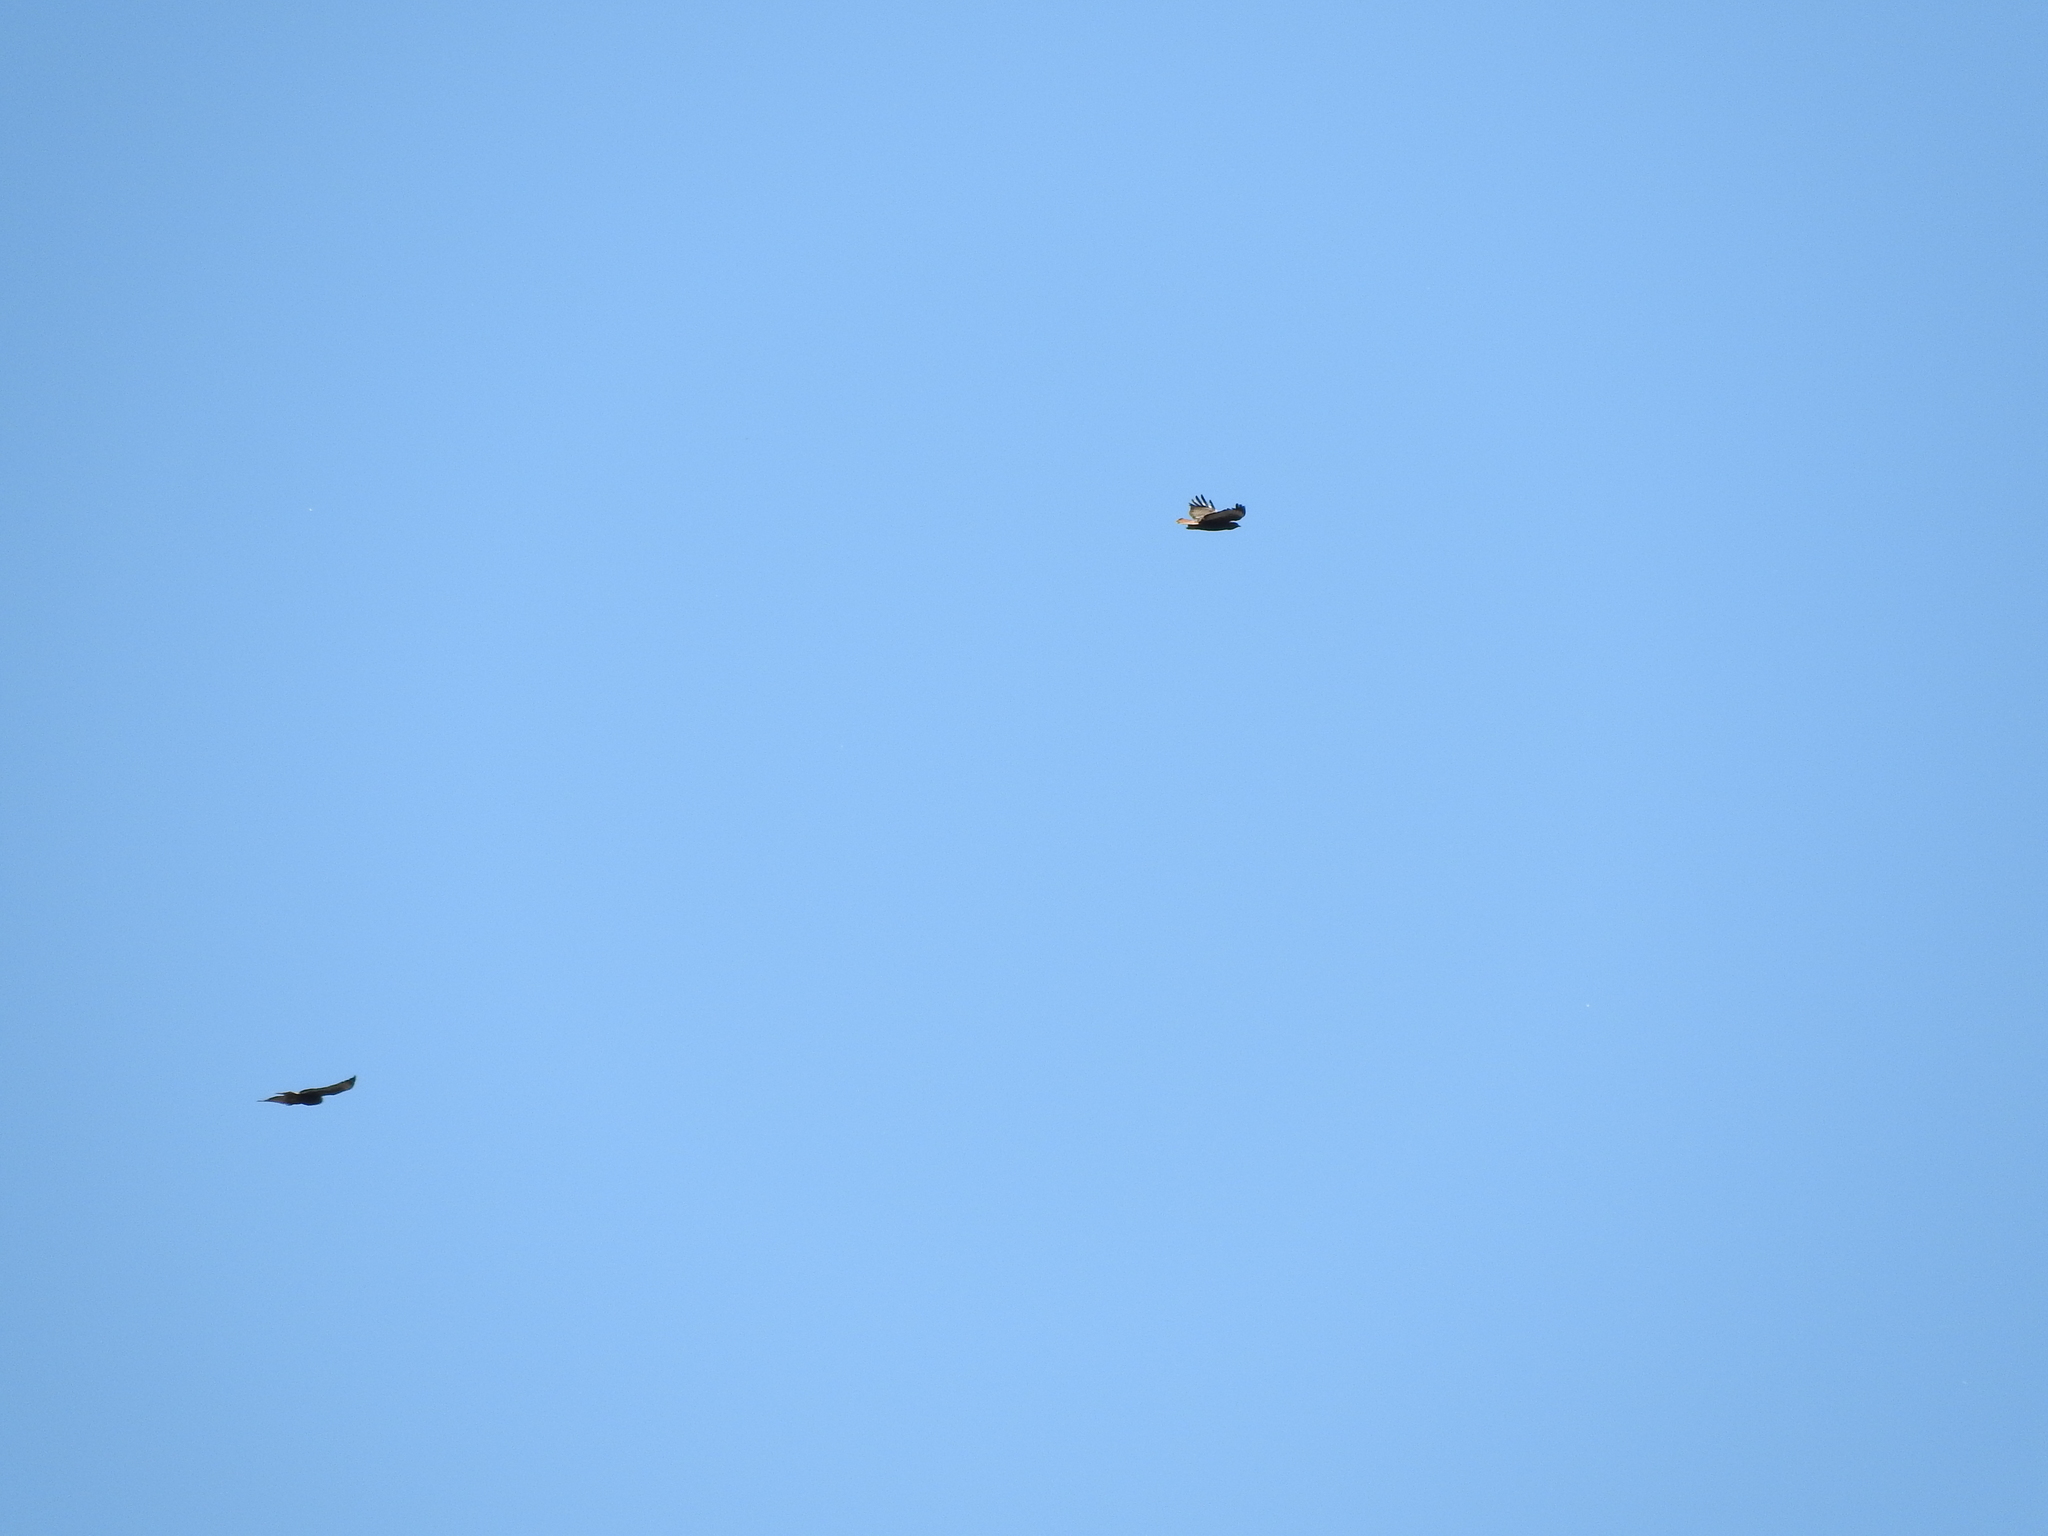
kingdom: Animalia
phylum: Chordata
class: Aves
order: Accipitriformes
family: Accipitridae
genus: Buteo
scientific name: Buteo jamaicensis
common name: Red-tailed hawk
